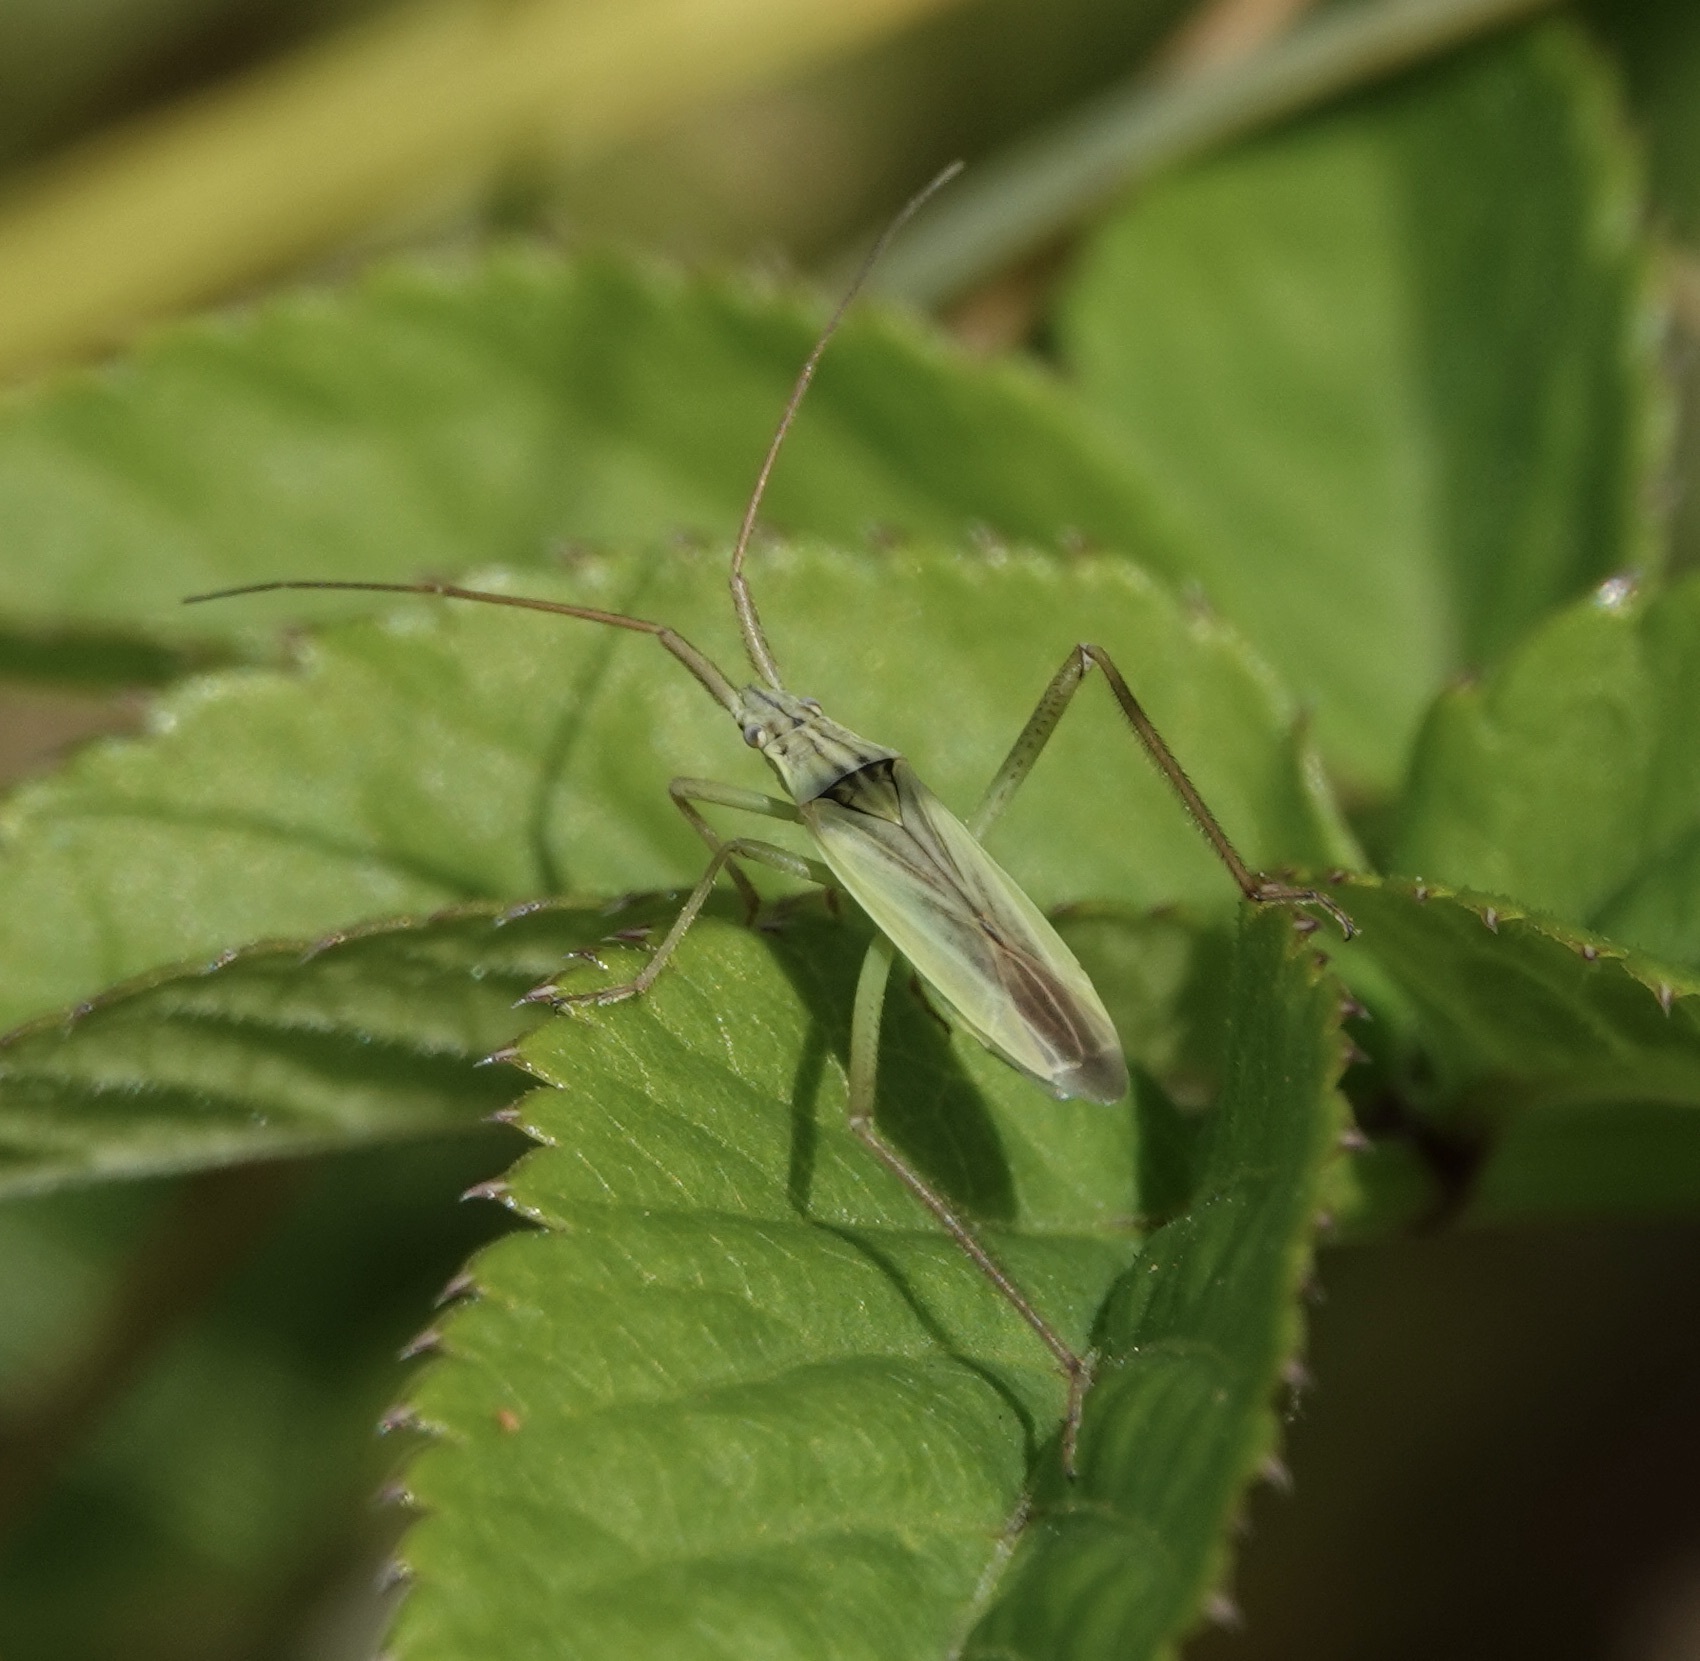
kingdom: Animalia
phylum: Arthropoda
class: Insecta
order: Hemiptera
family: Miridae
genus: Notostira
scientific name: Notostira elongata
